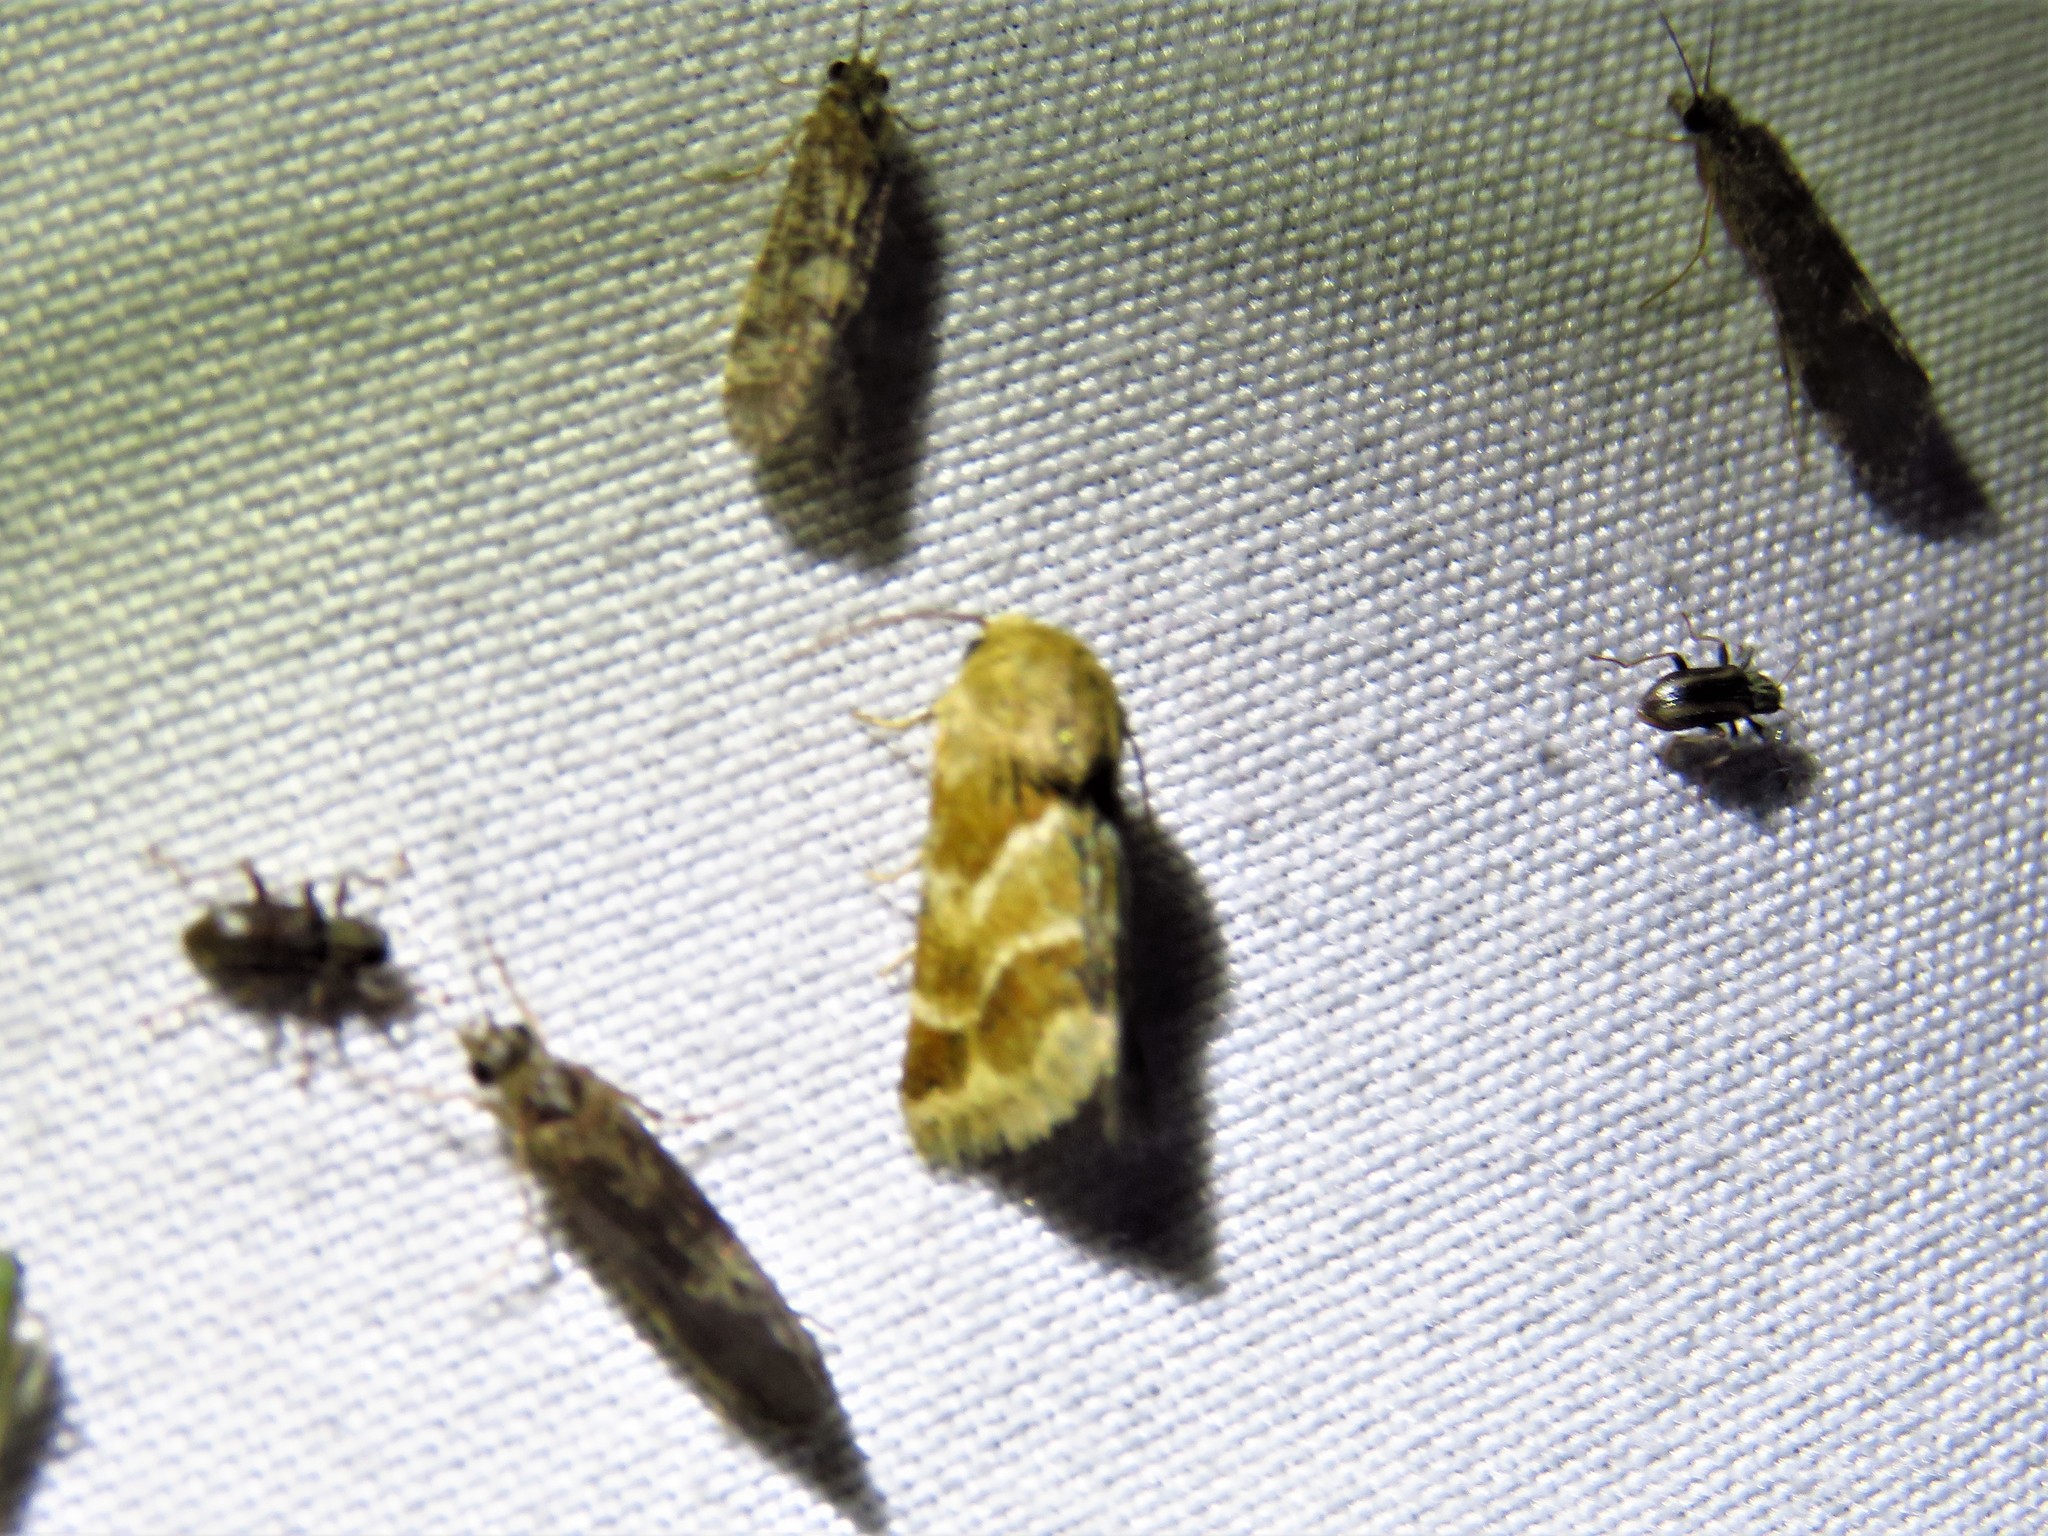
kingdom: Animalia
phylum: Arthropoda
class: Insecta
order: Lepidoptera
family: Noctuidae
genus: Schinia
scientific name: Schinia lynx
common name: Lynx flower moth
